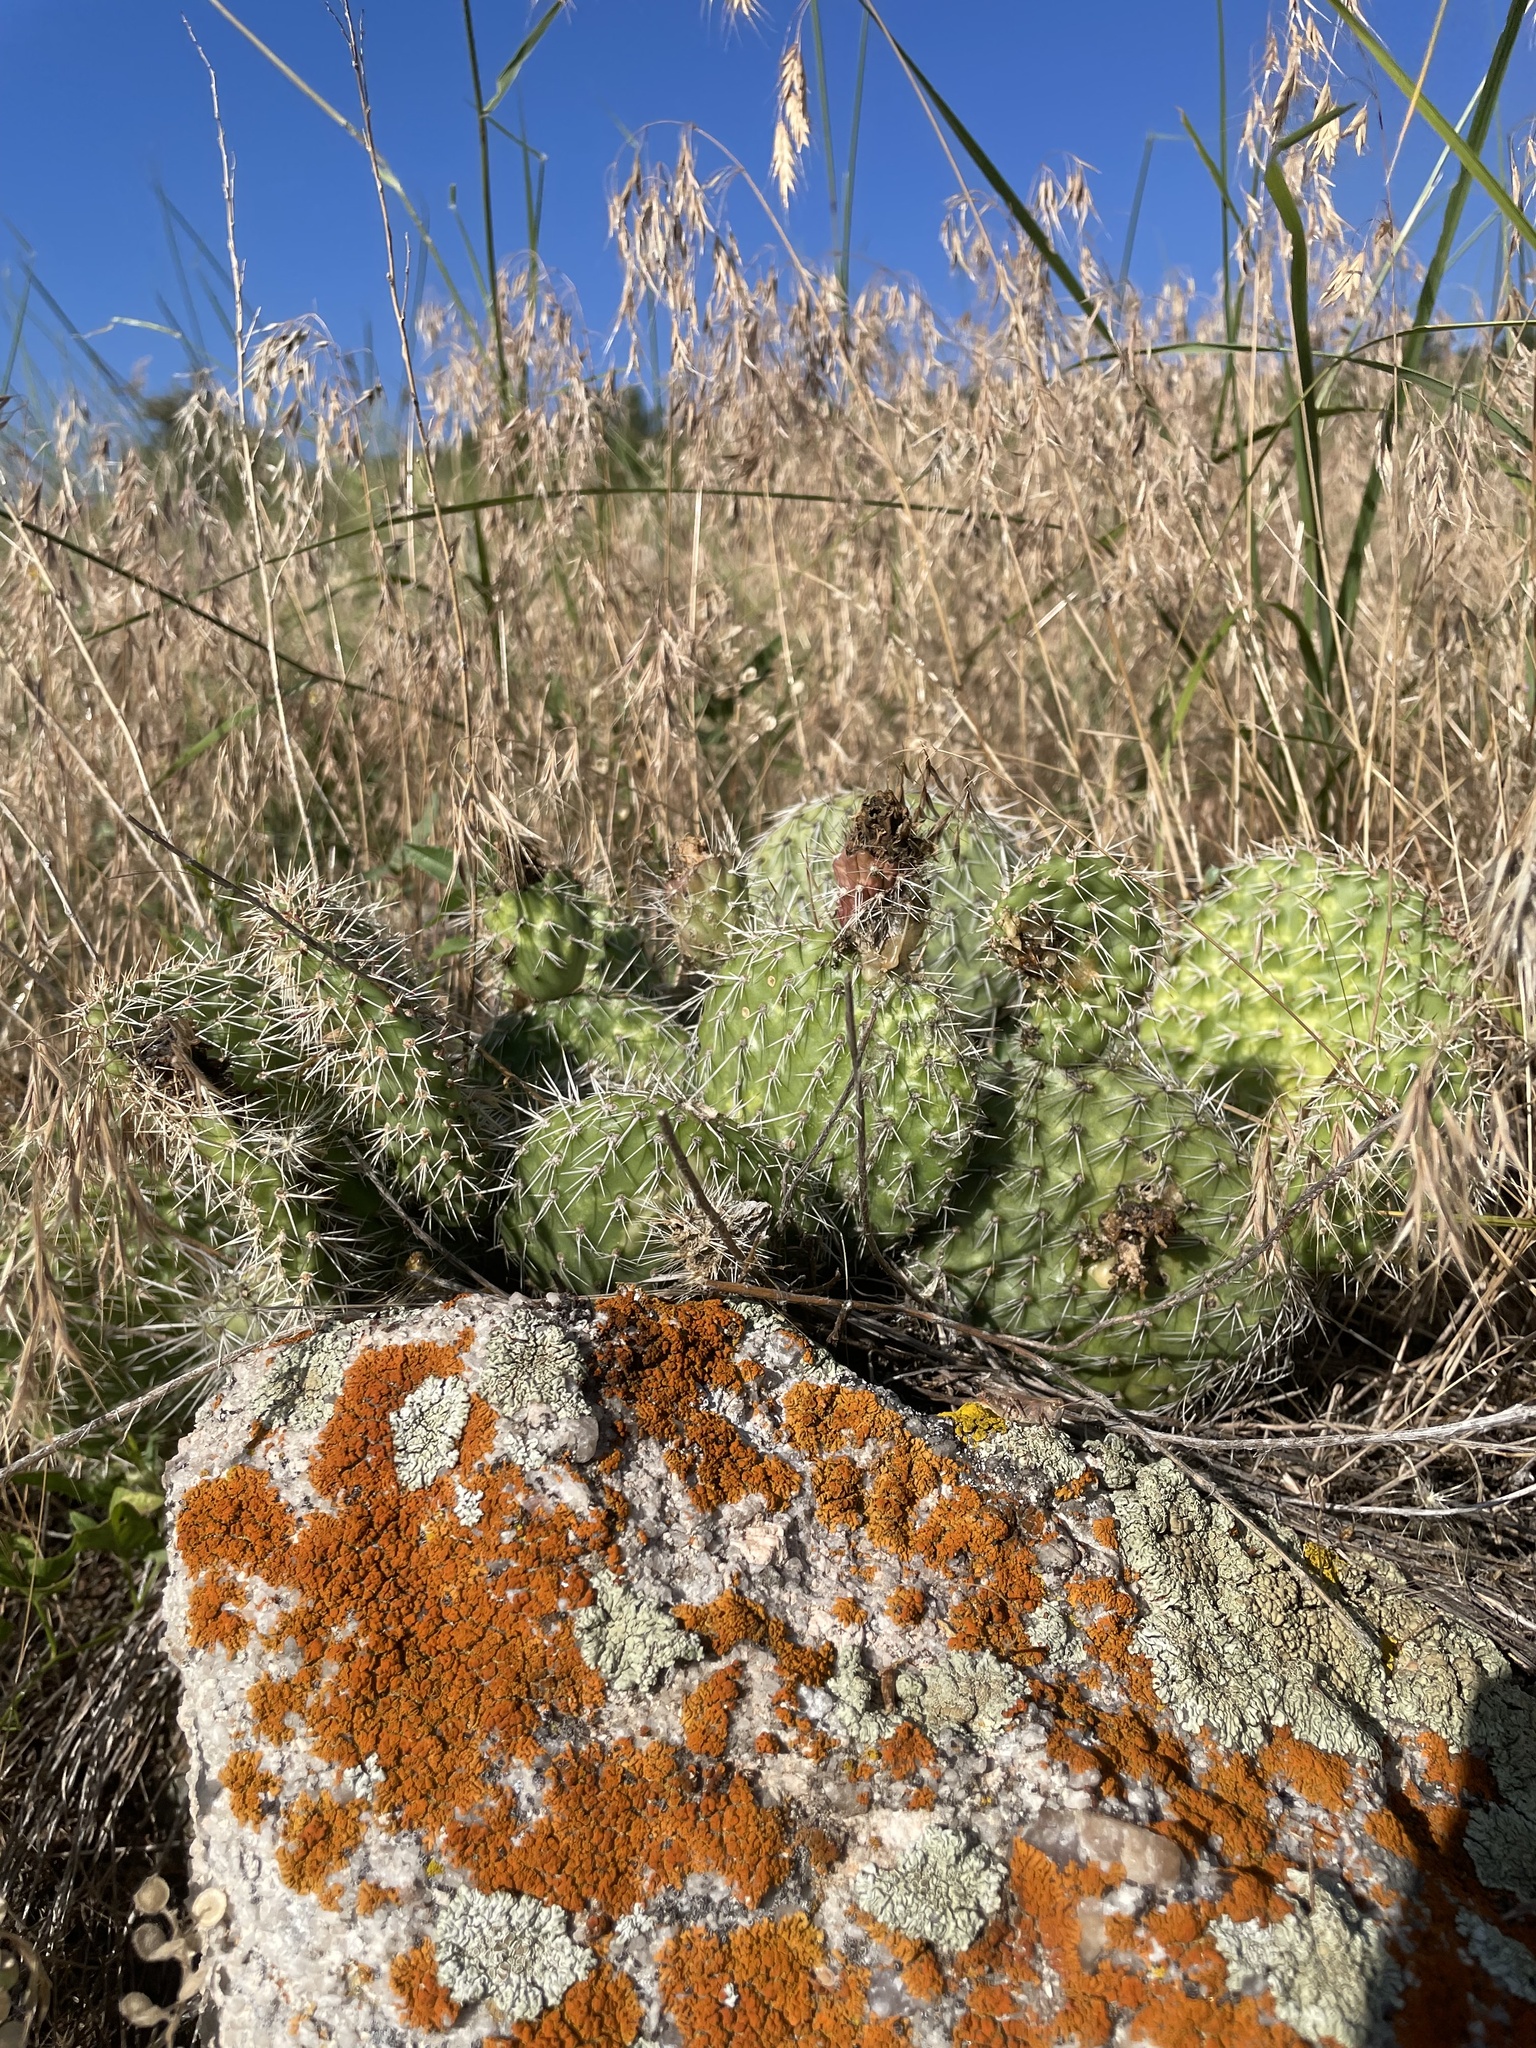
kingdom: Plantae
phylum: Tracheophyta
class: Magnoliopsida
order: Caryophyllales
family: Cactaceae
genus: Opuntia
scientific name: Opuntia polyacantha
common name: Plains prickly-pear
